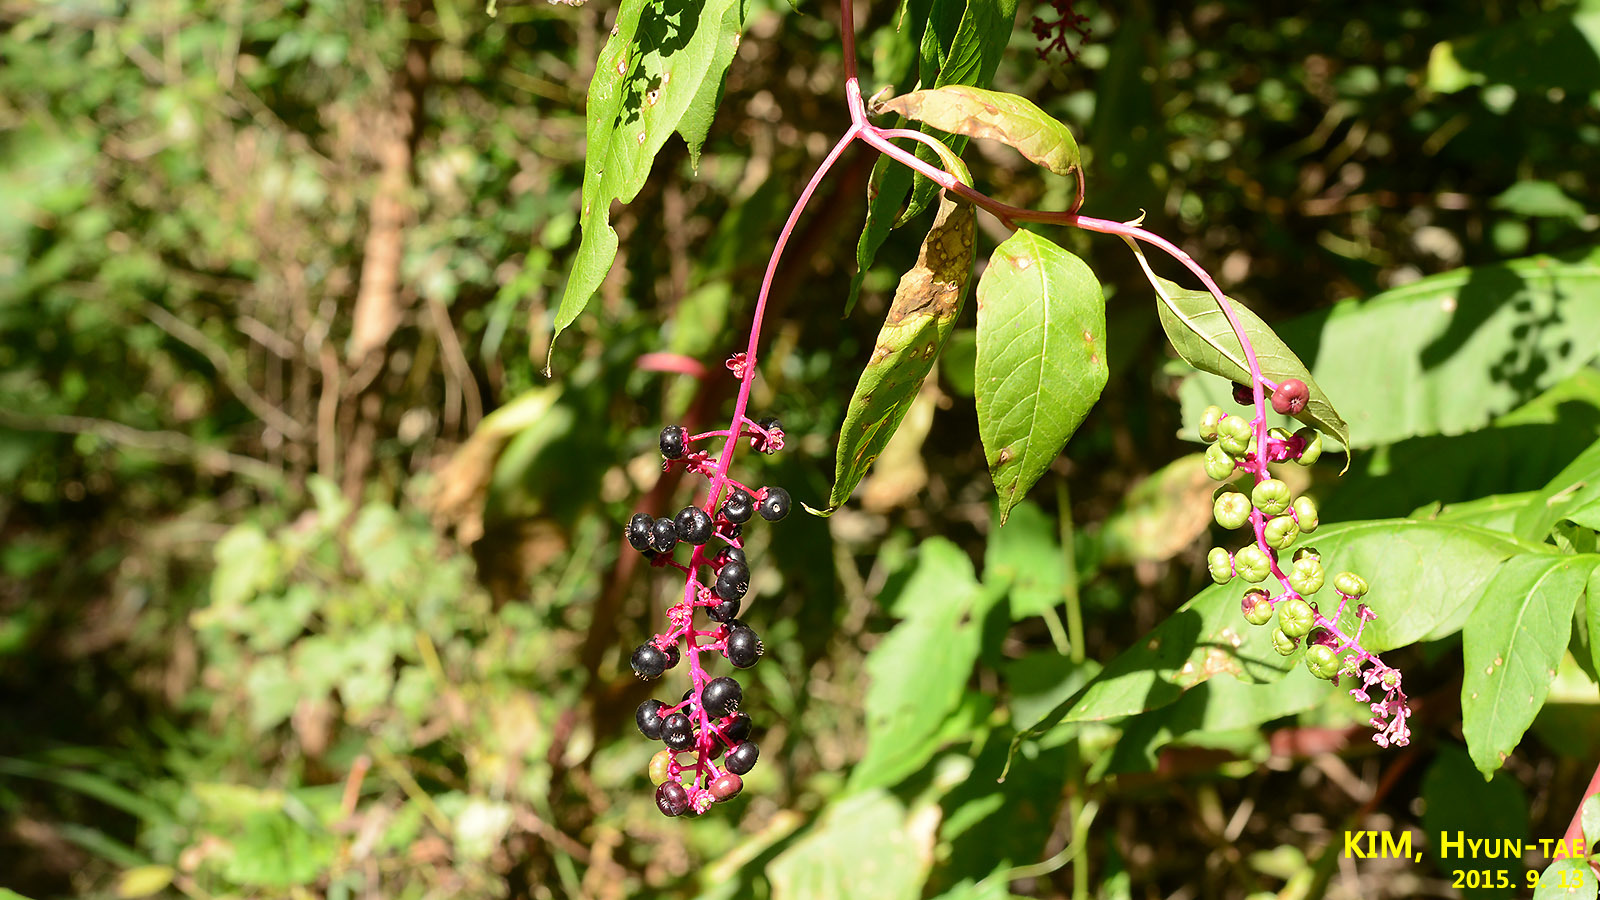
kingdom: Plantae
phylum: Tracheophyta
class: Magnoliopsida
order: Caryophyllales
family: Phytolaccaceae
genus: Phytolacca
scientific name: Phytolacca americana
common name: American pokeweed
